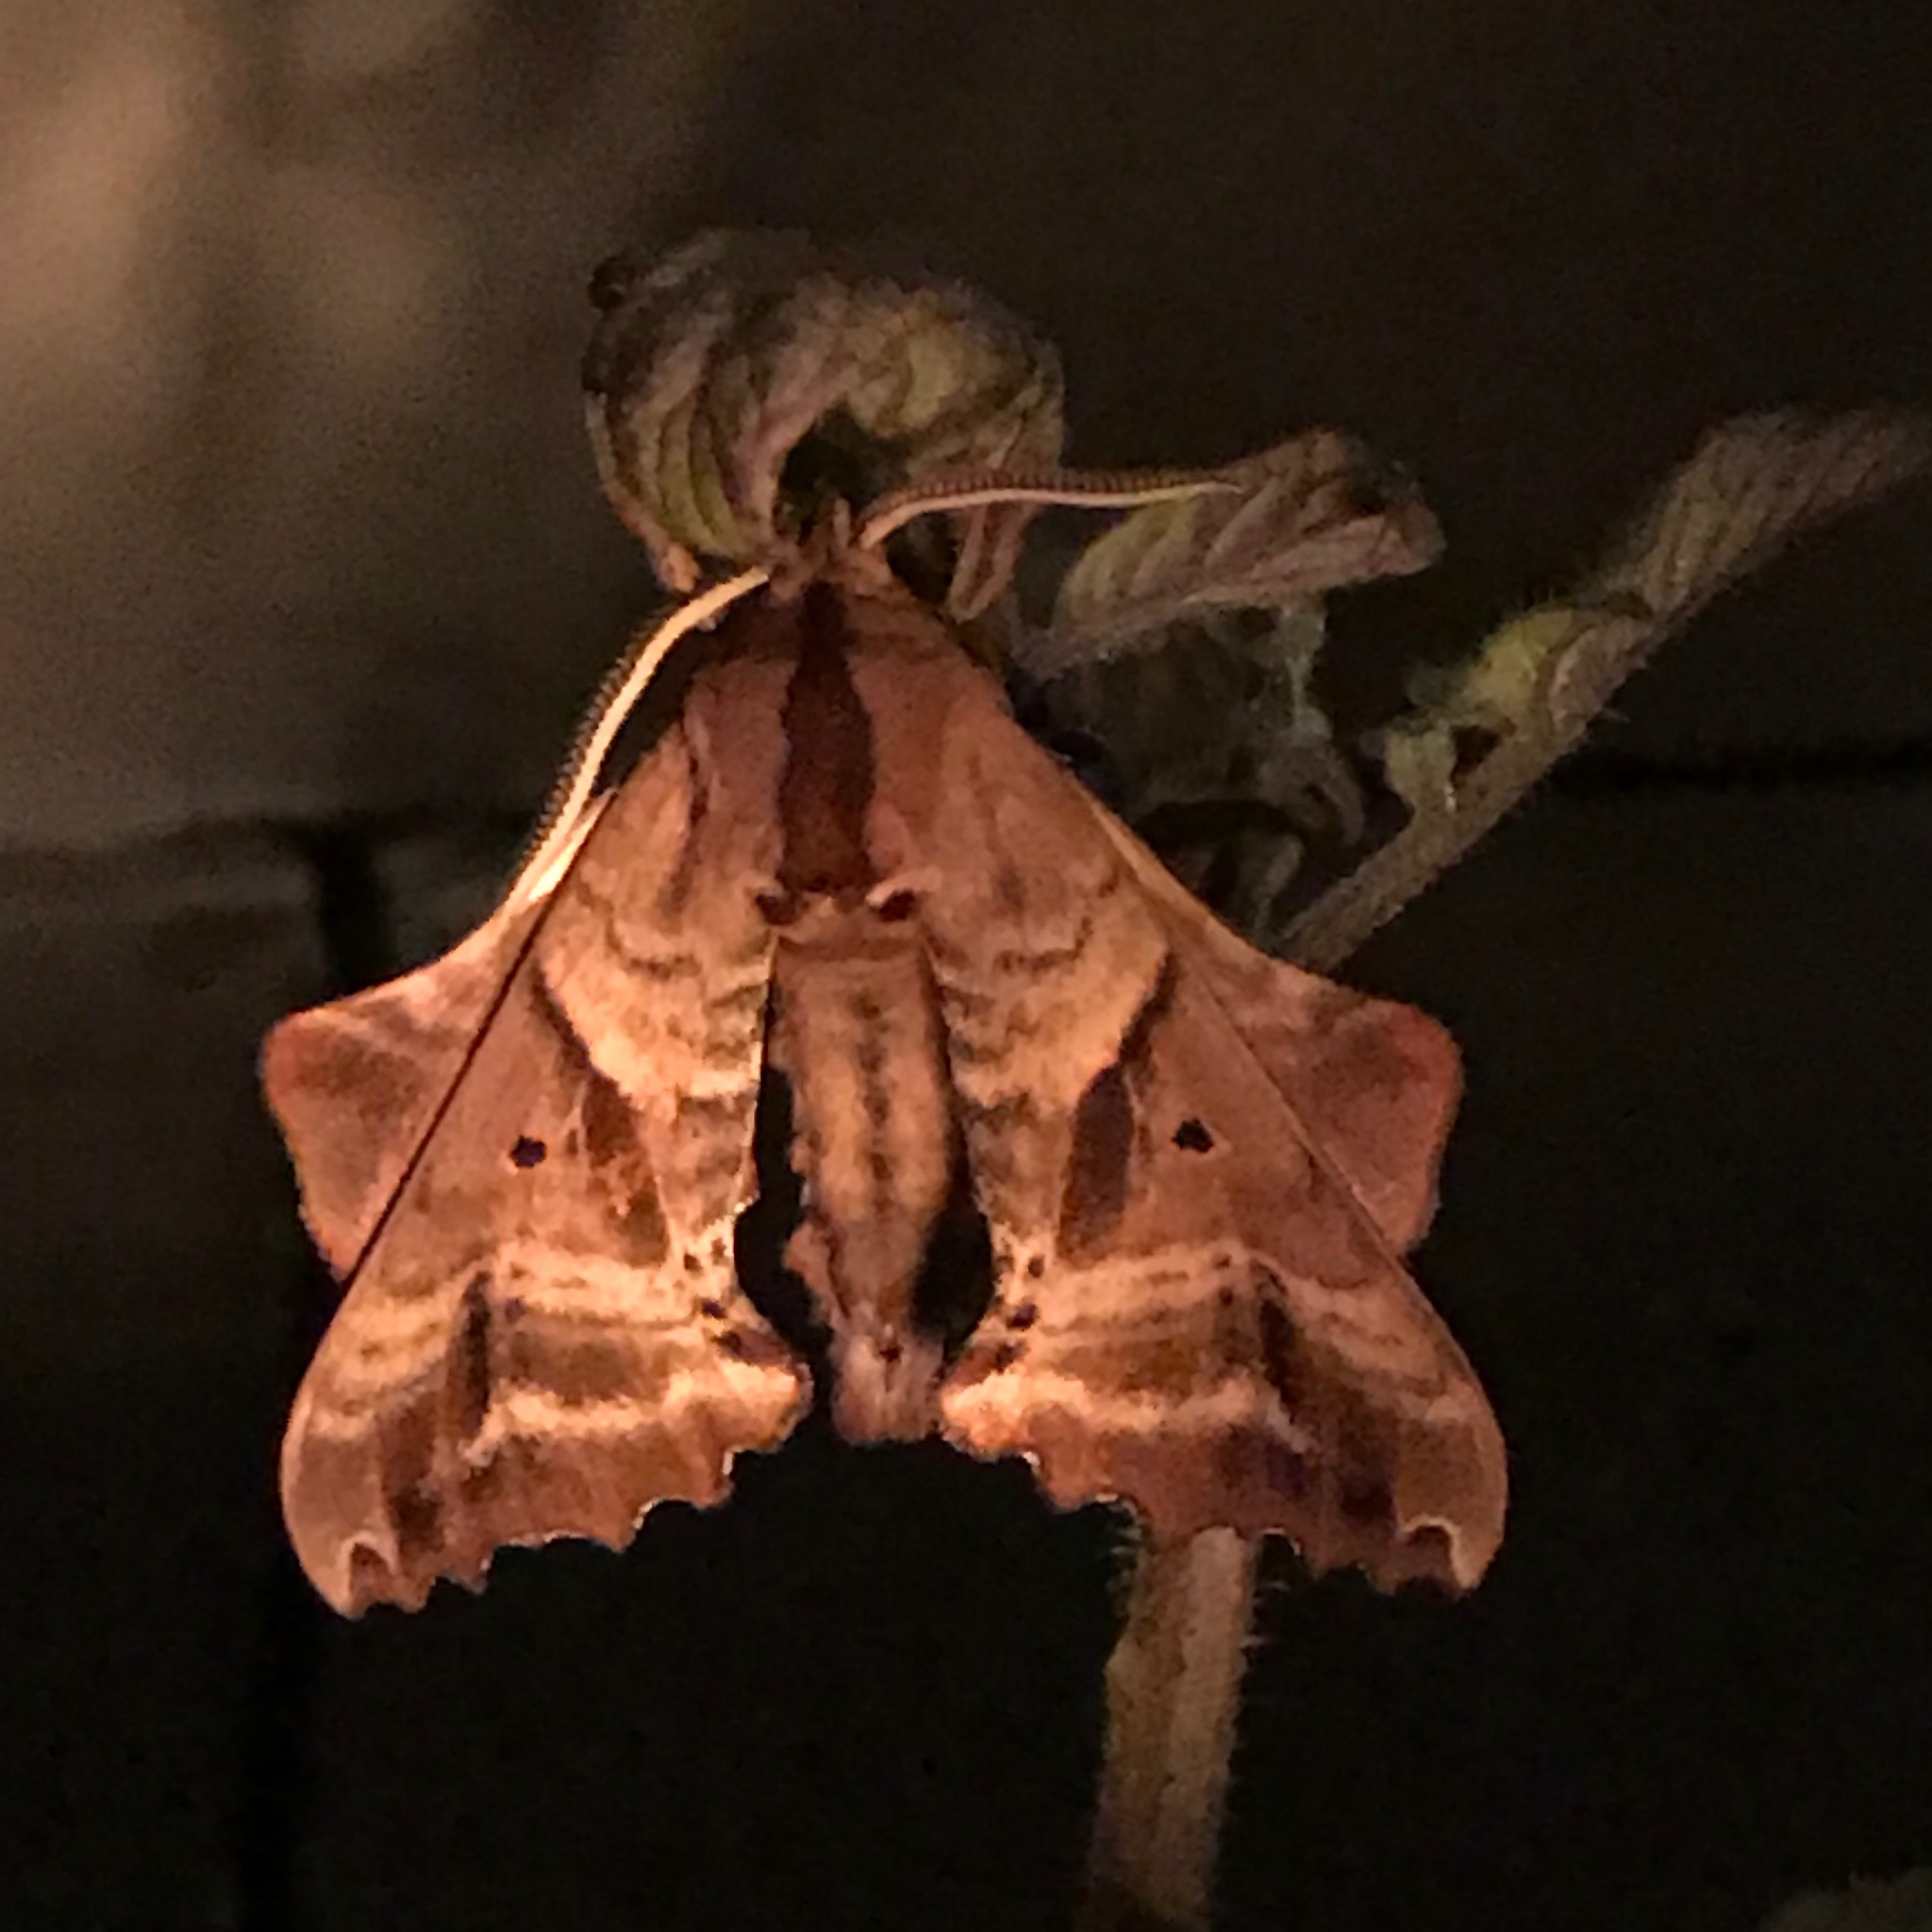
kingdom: Animalia
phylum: Arthropoda
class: Insecta
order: Lepidoptera
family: Sphingidae
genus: Paonias
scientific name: Paonias excaecata
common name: Blind-eyed sphinx
